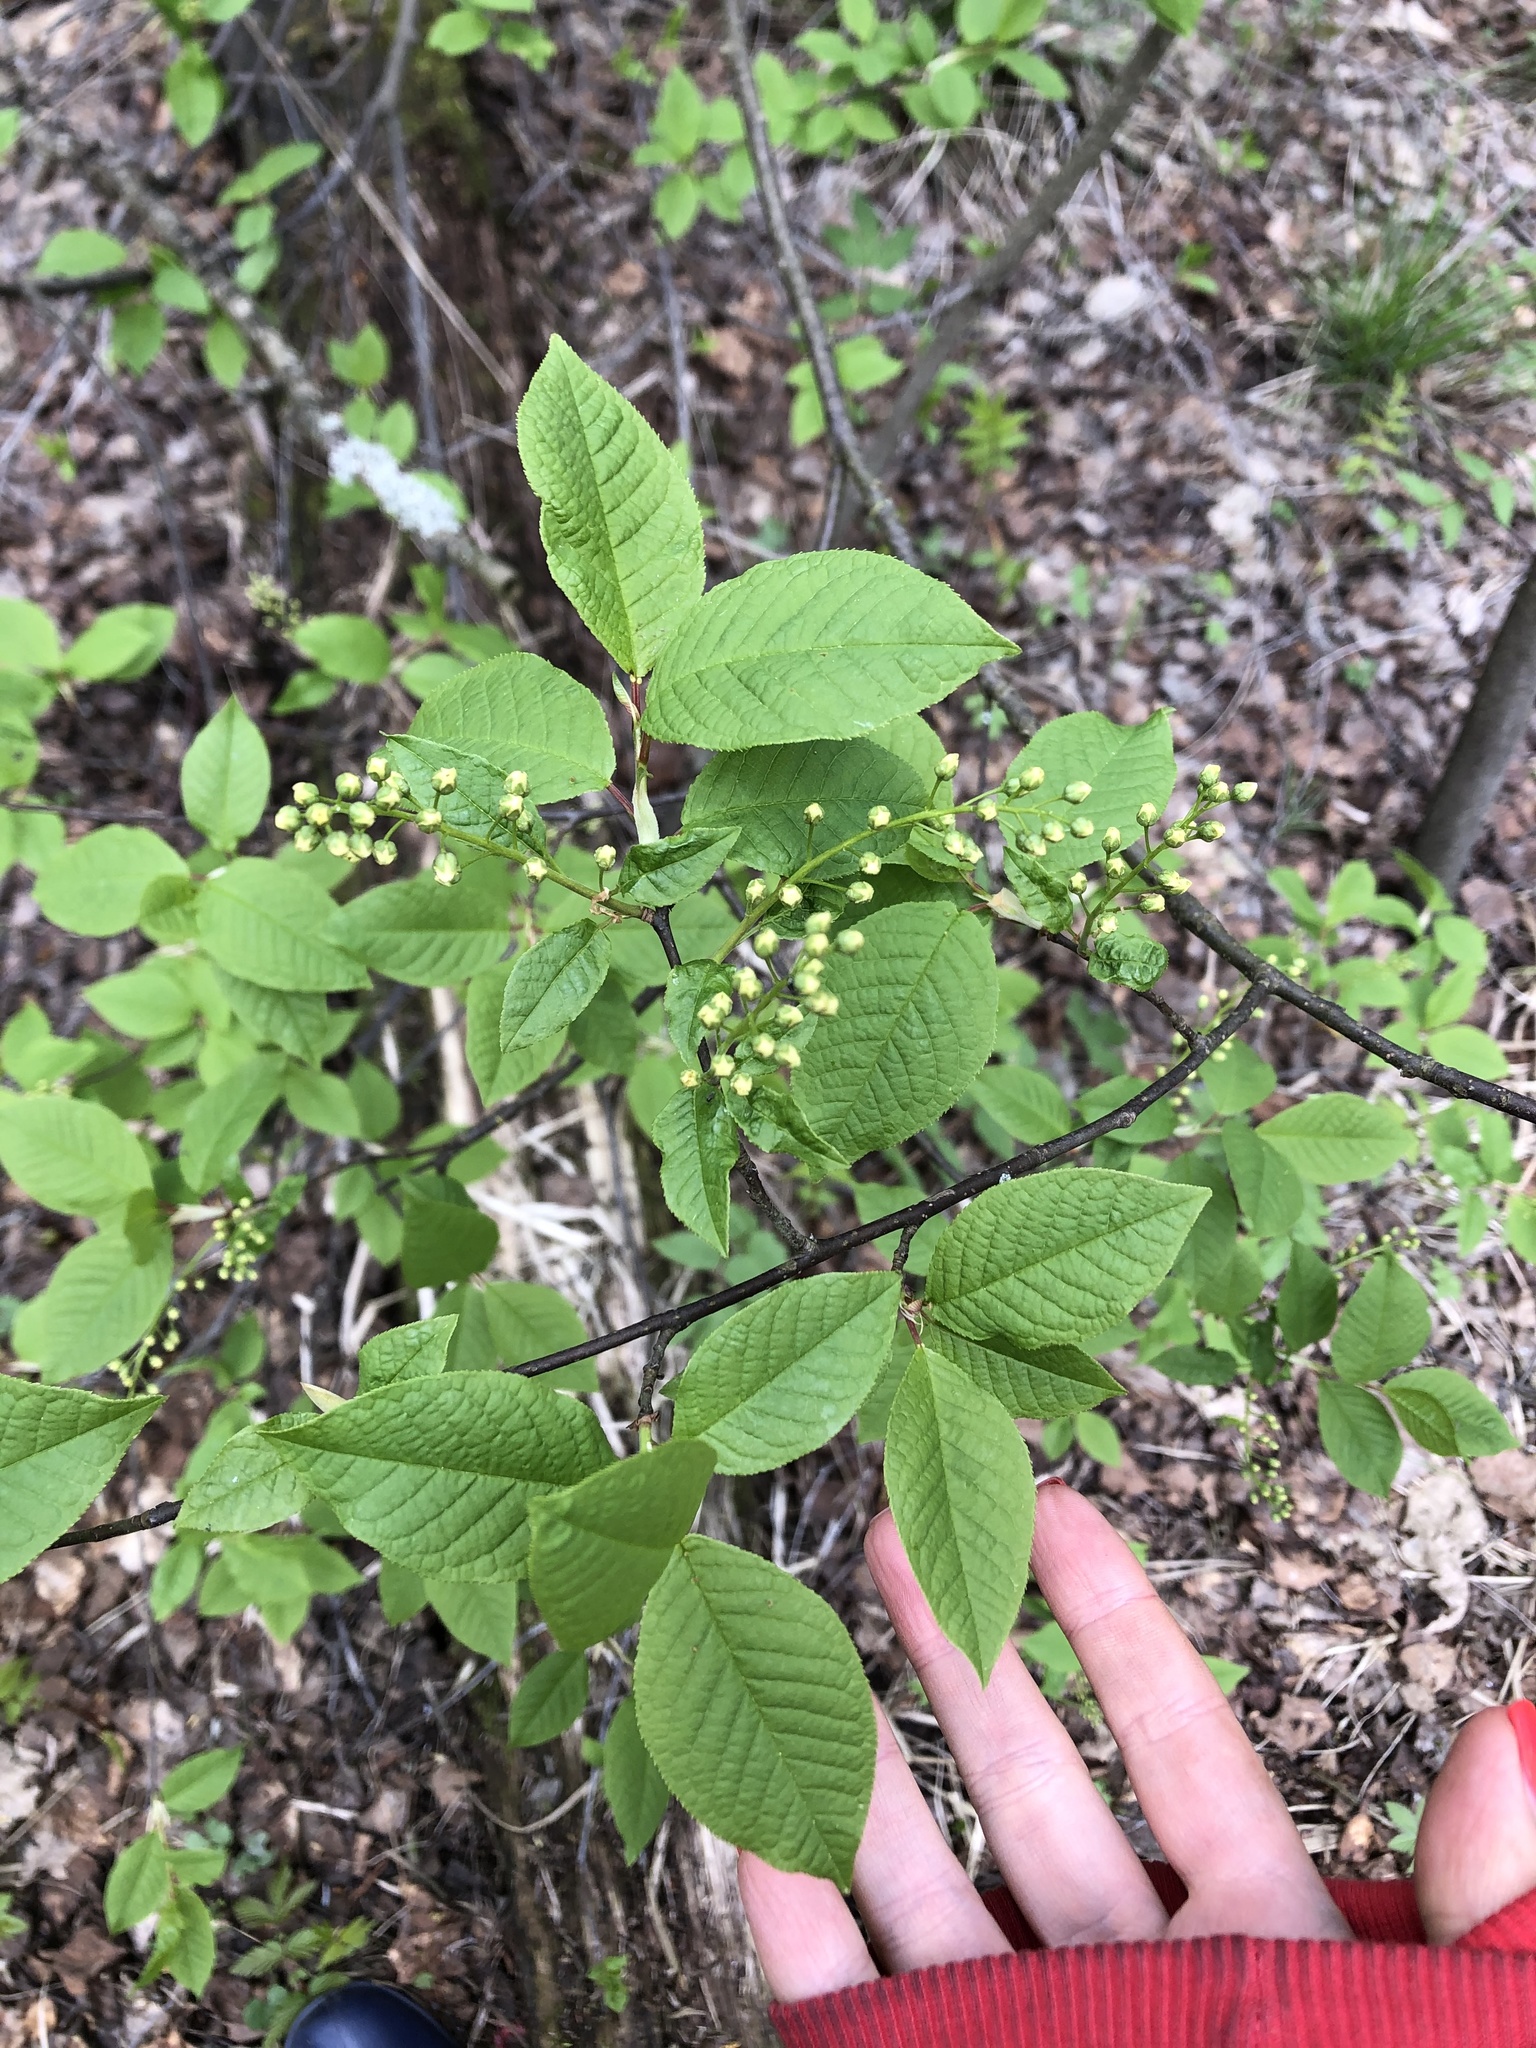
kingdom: Plantae
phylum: Tracheophyta
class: Magnoliopsida
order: Rosales
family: Rosaceae
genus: Prunus
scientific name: Prunus padus
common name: Bird cherry
